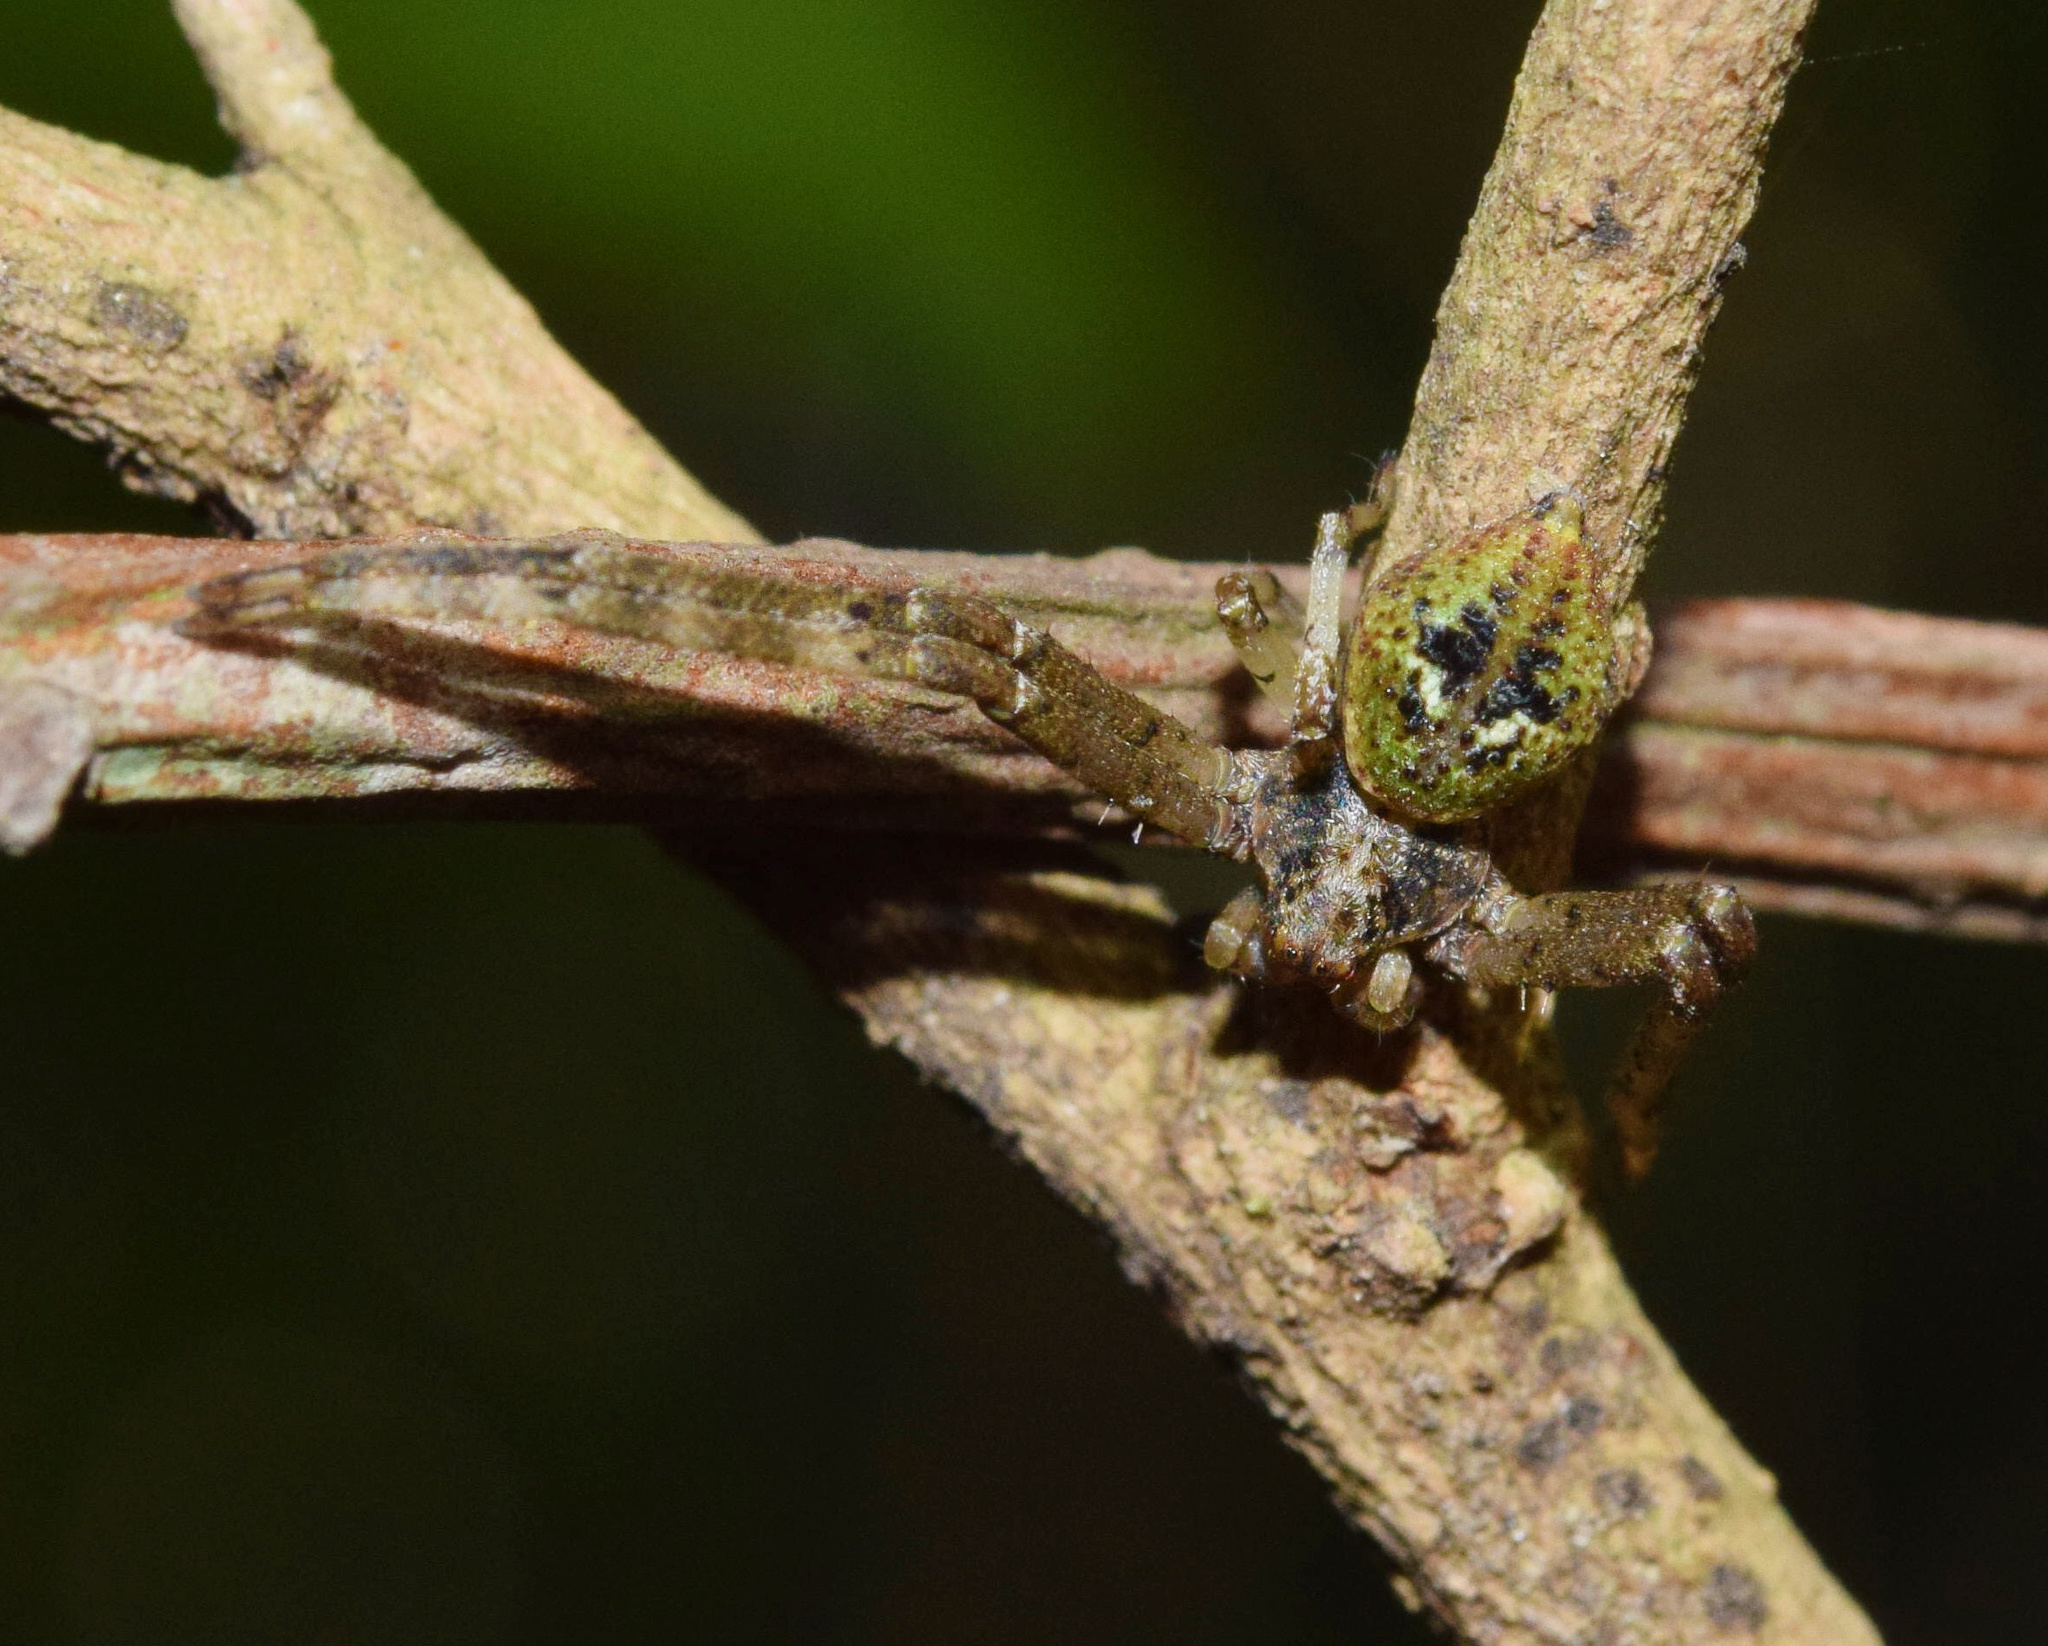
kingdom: Animalia
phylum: Arthropoda
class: Arachnida
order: Araneae
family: Thomisidae
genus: Geraesta
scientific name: Geraesta congoensis
